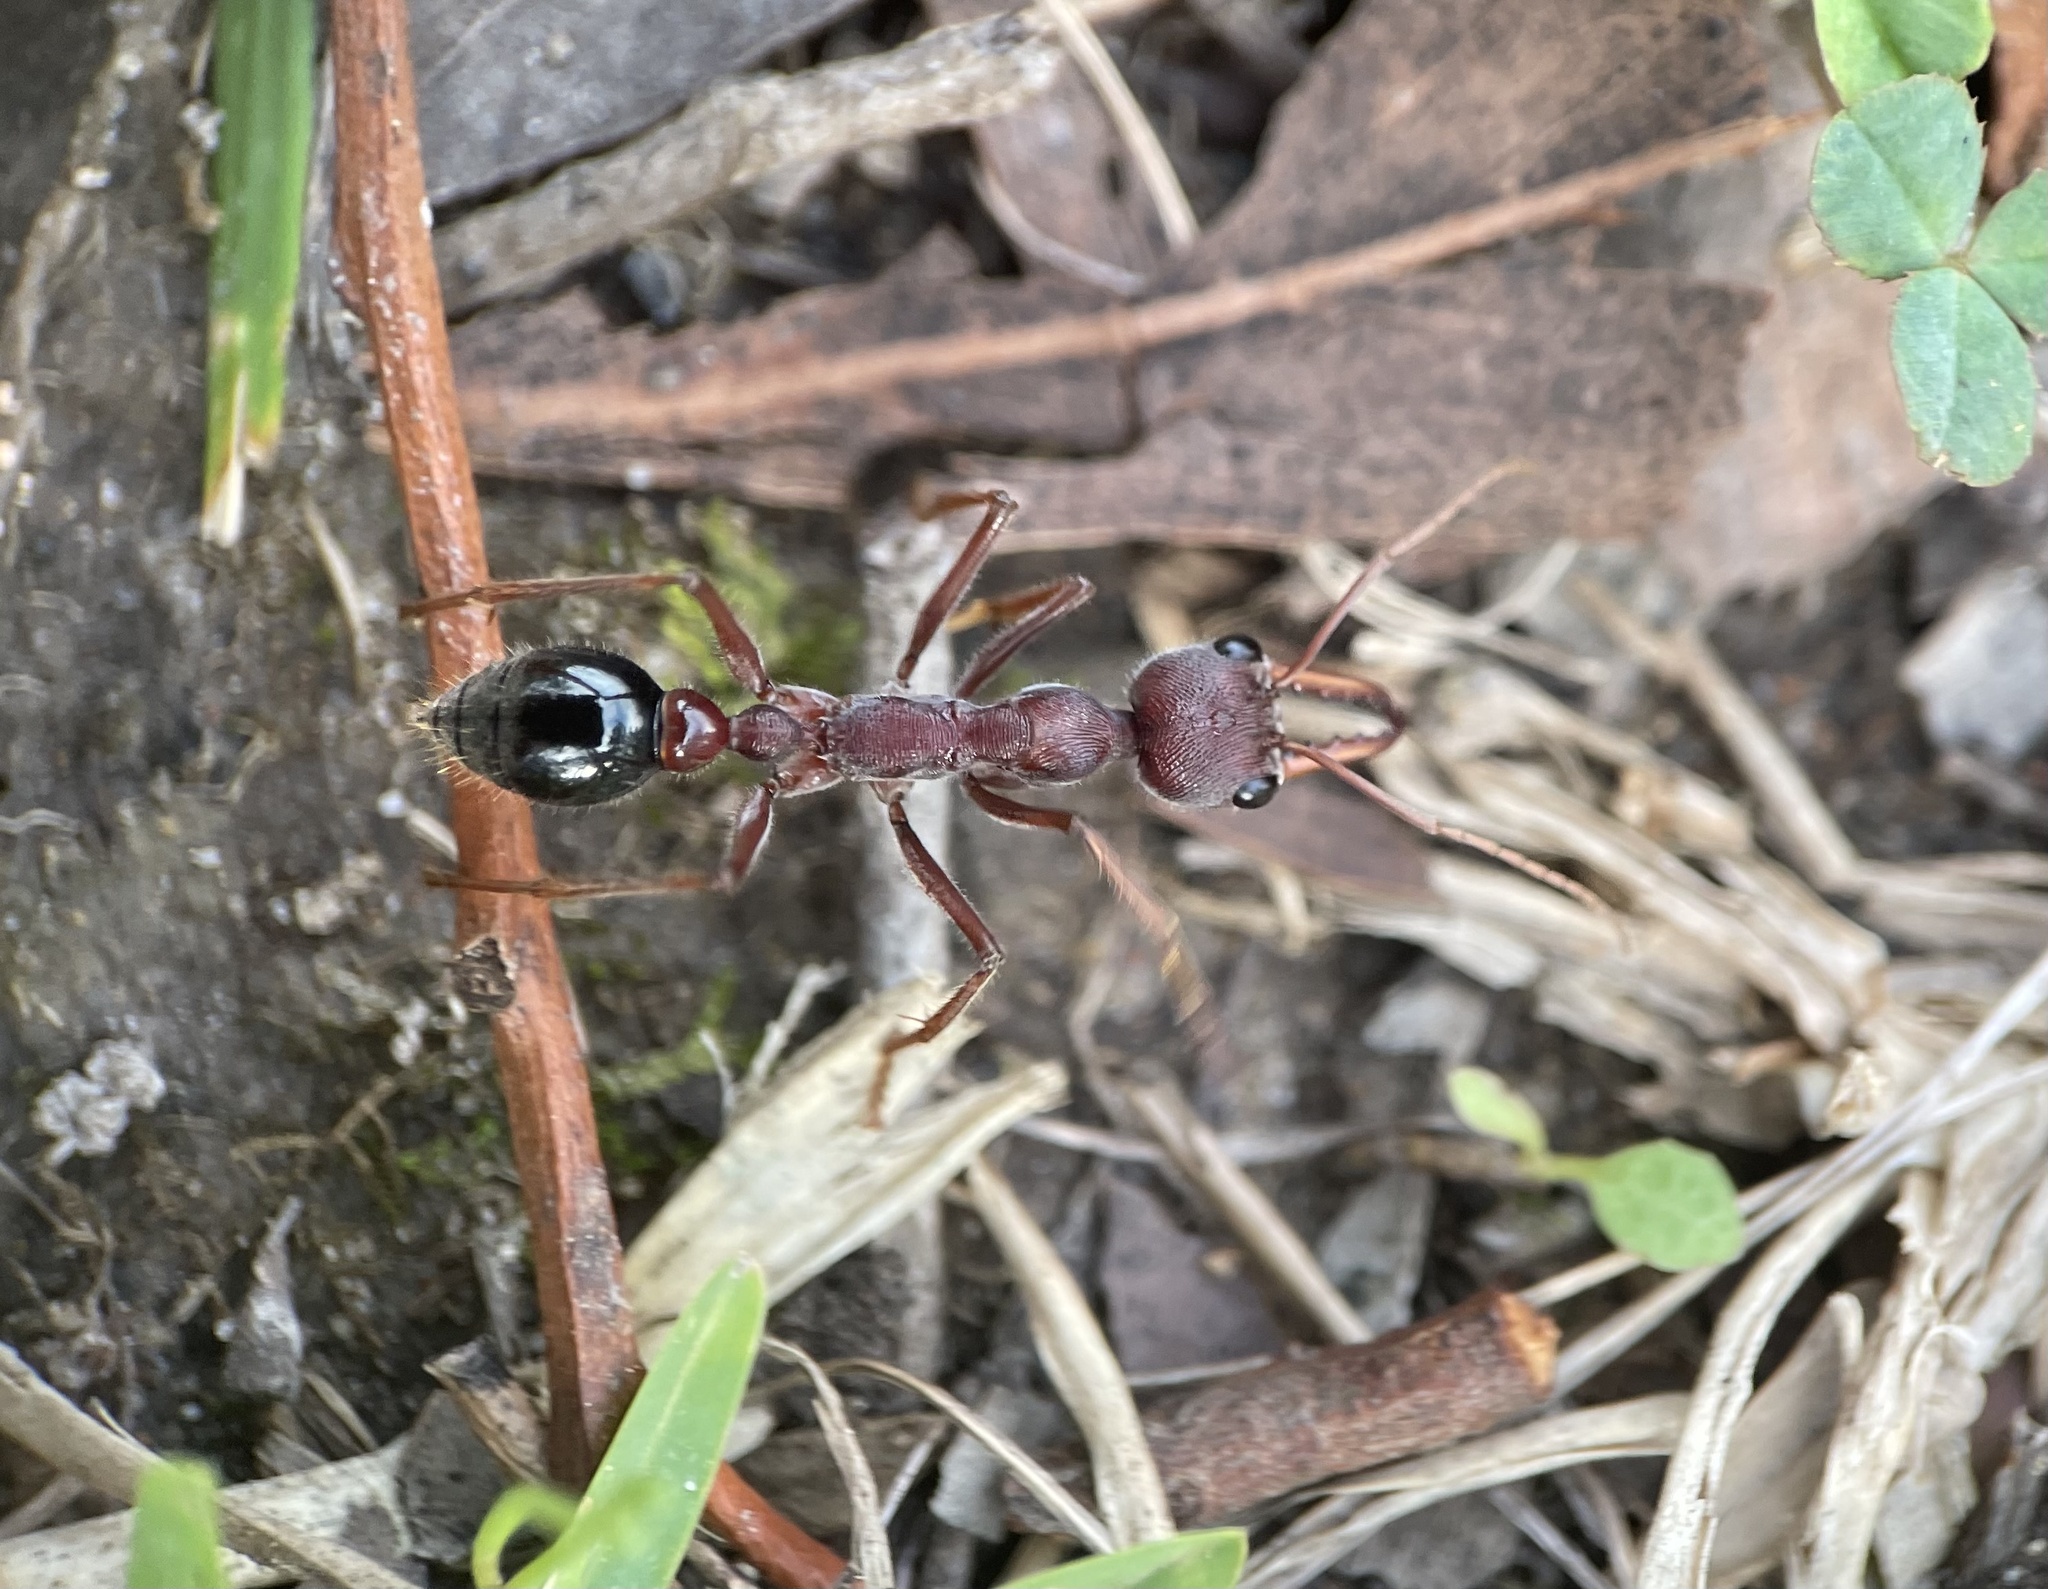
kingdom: Animalia
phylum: Arthropoda
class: Insecta
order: Hymenoptera
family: Formicidae
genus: Myrmecia
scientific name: Myrmecia simillima
